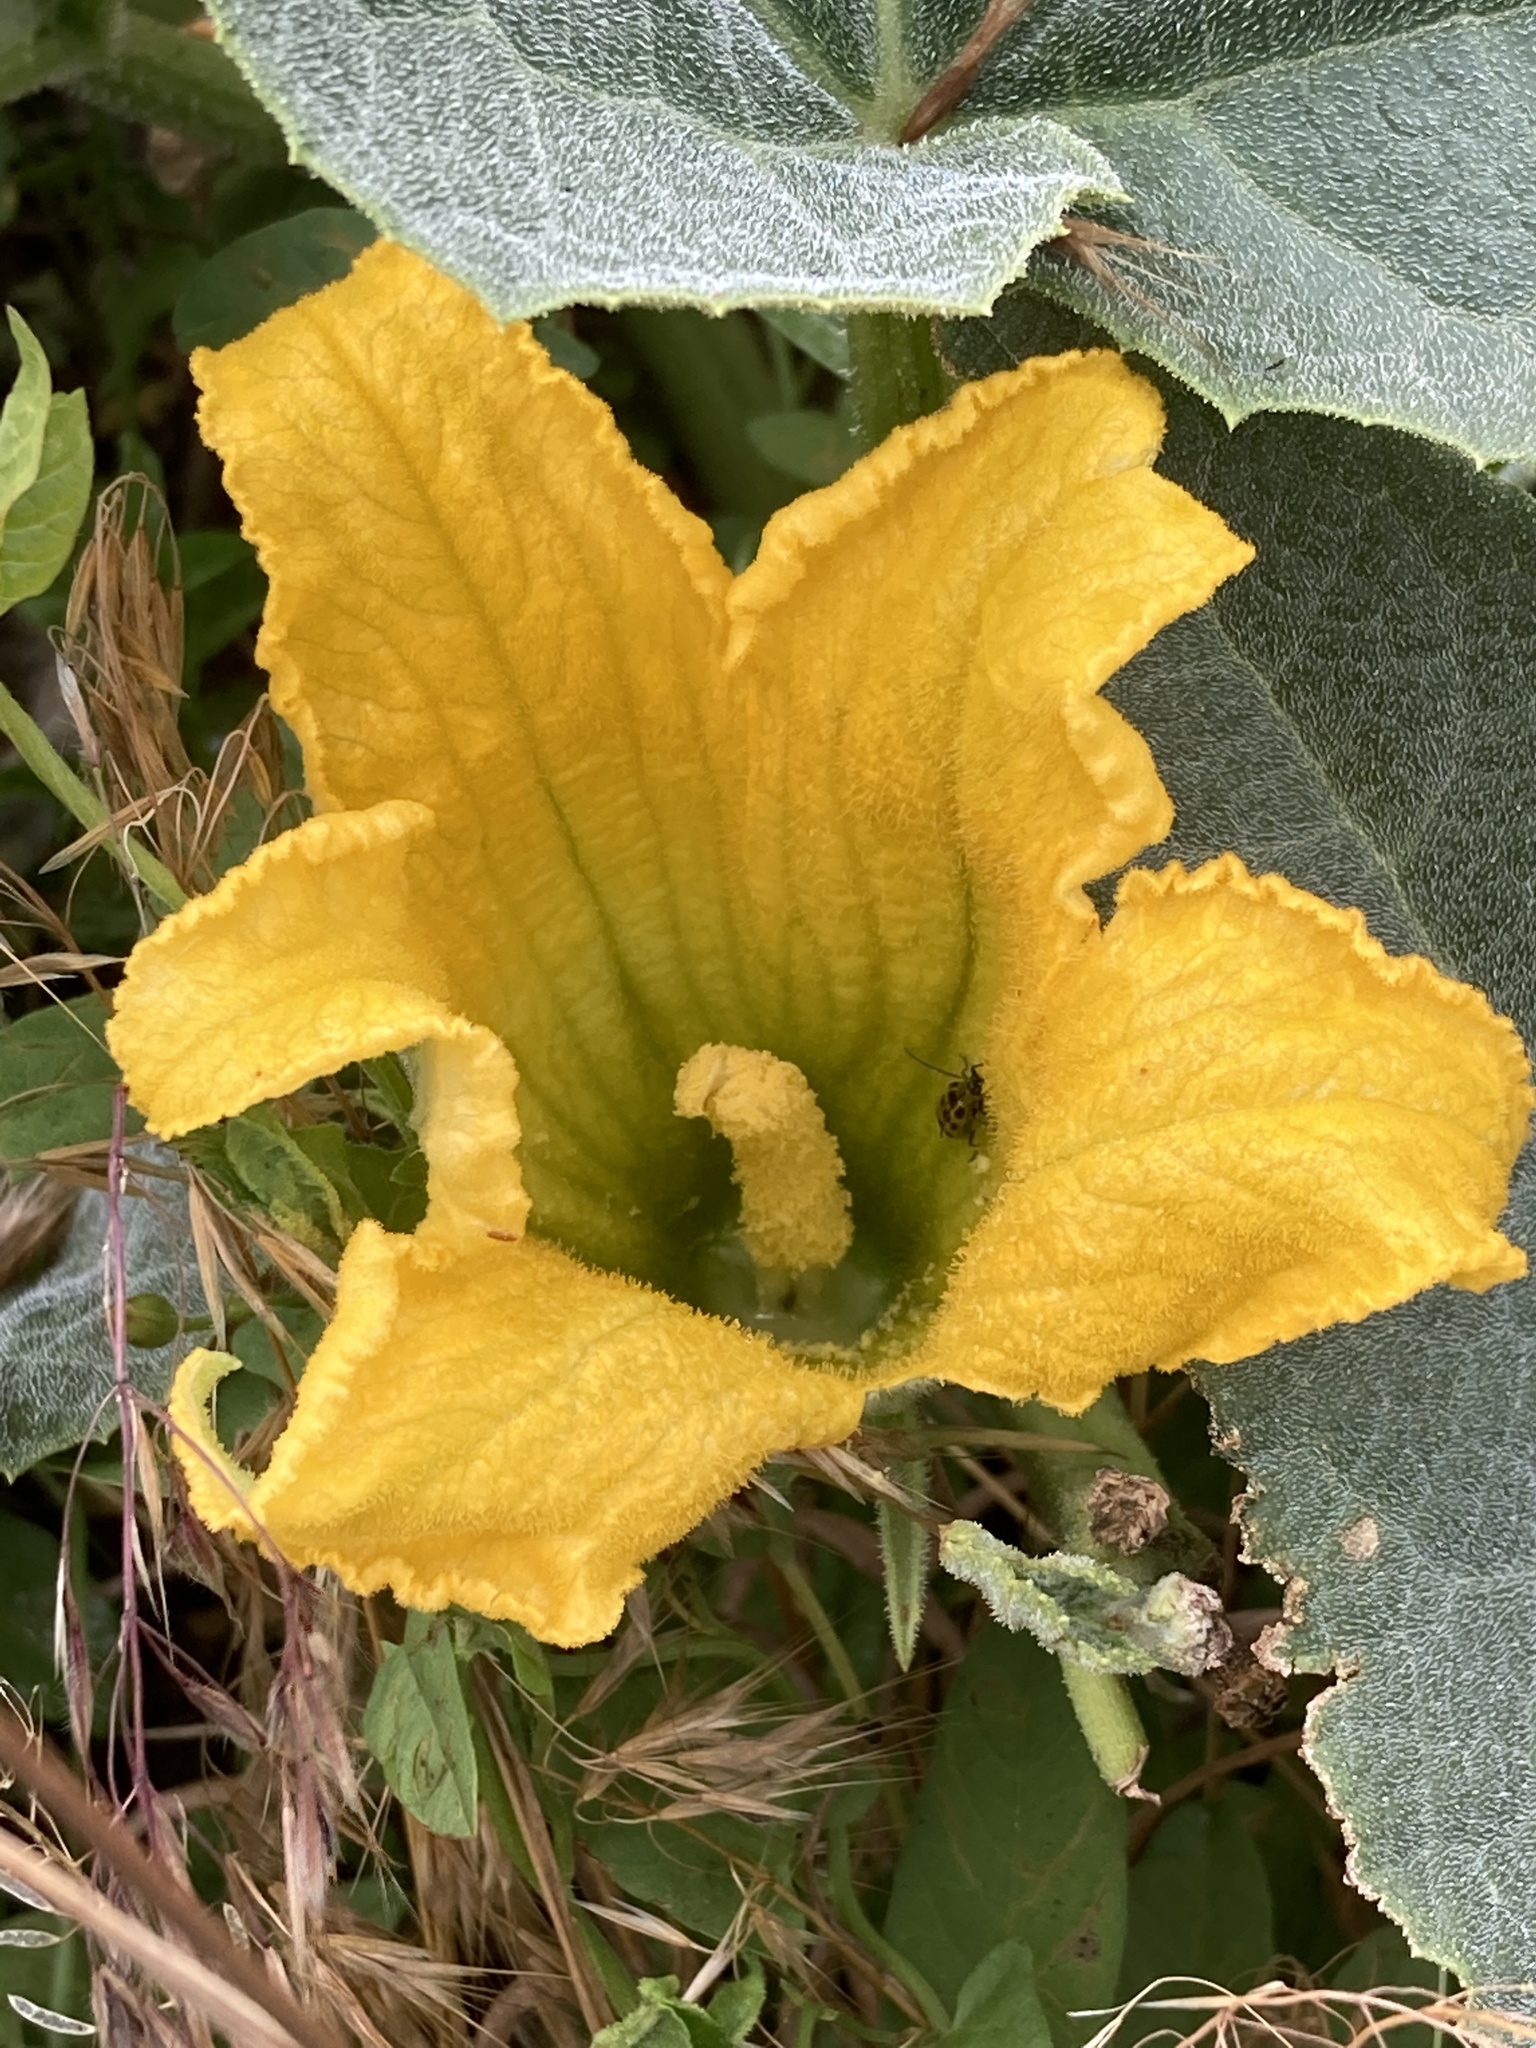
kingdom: Plantae
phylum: Tracheophyta
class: Magnoliopsida
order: Cucurbitales
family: Cucurbitaceae
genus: Cucurbita
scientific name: Cucurbita foetidissima
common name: Buffalo gourd
